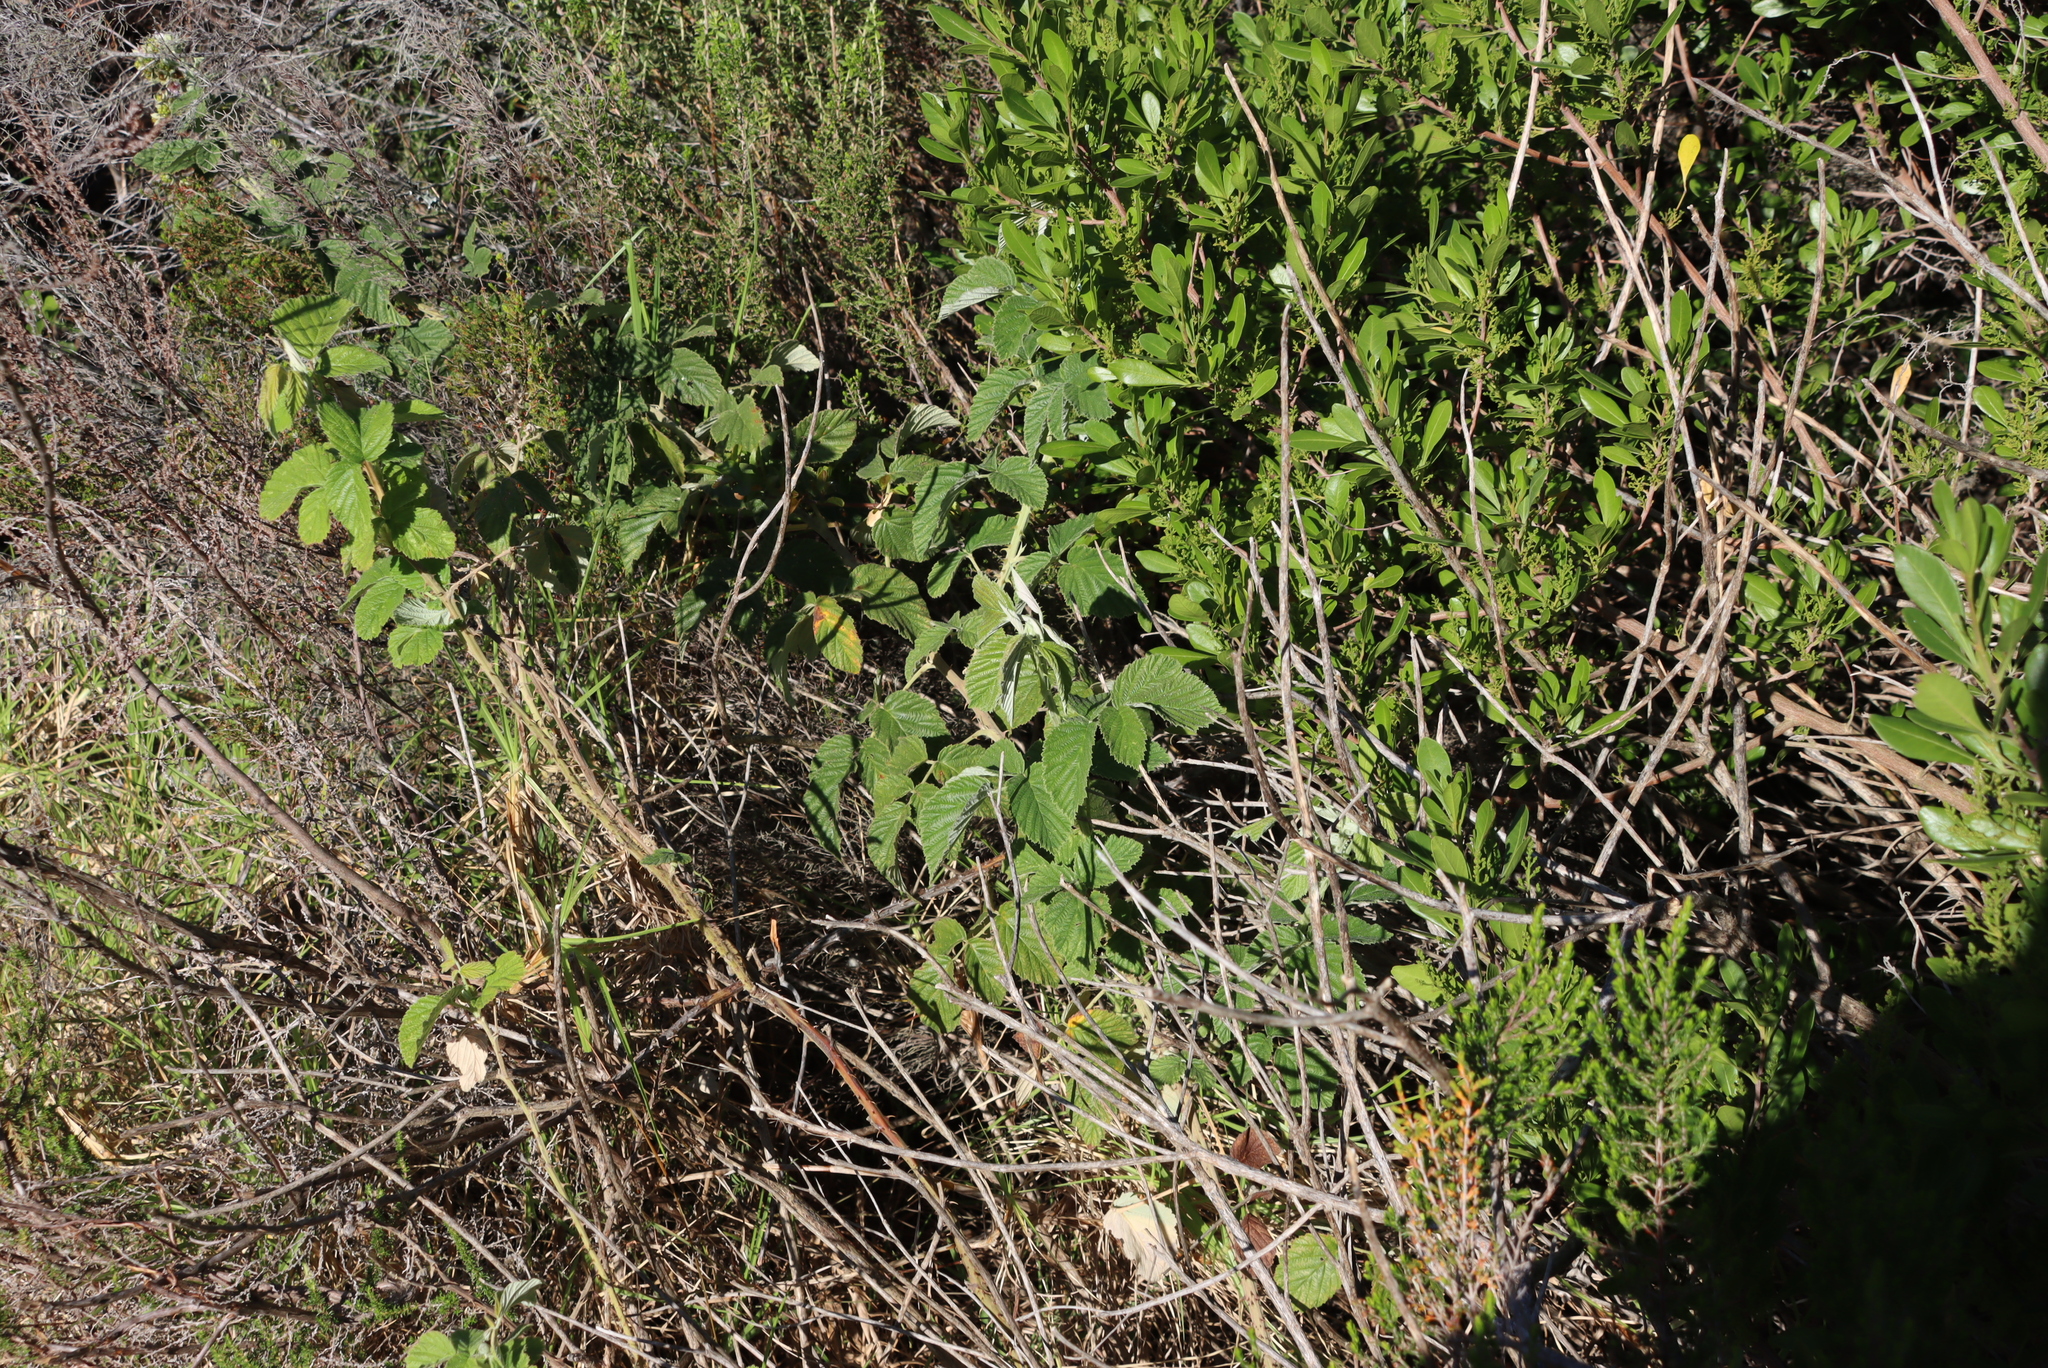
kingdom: Plantae
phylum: Tracheophyta
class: Magnoliopsida
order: Rosales
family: Rosaceae
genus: Rubus
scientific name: Rubus rigidus
